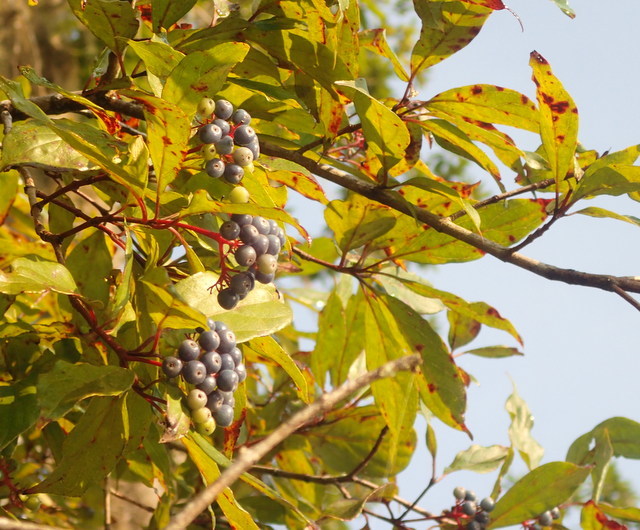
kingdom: Plantae
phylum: Tracheophyta
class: Magnoliopsida
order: Cornales
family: Cornaceae
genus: Cornus
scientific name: Cornus foemina
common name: Swamp dogwood
